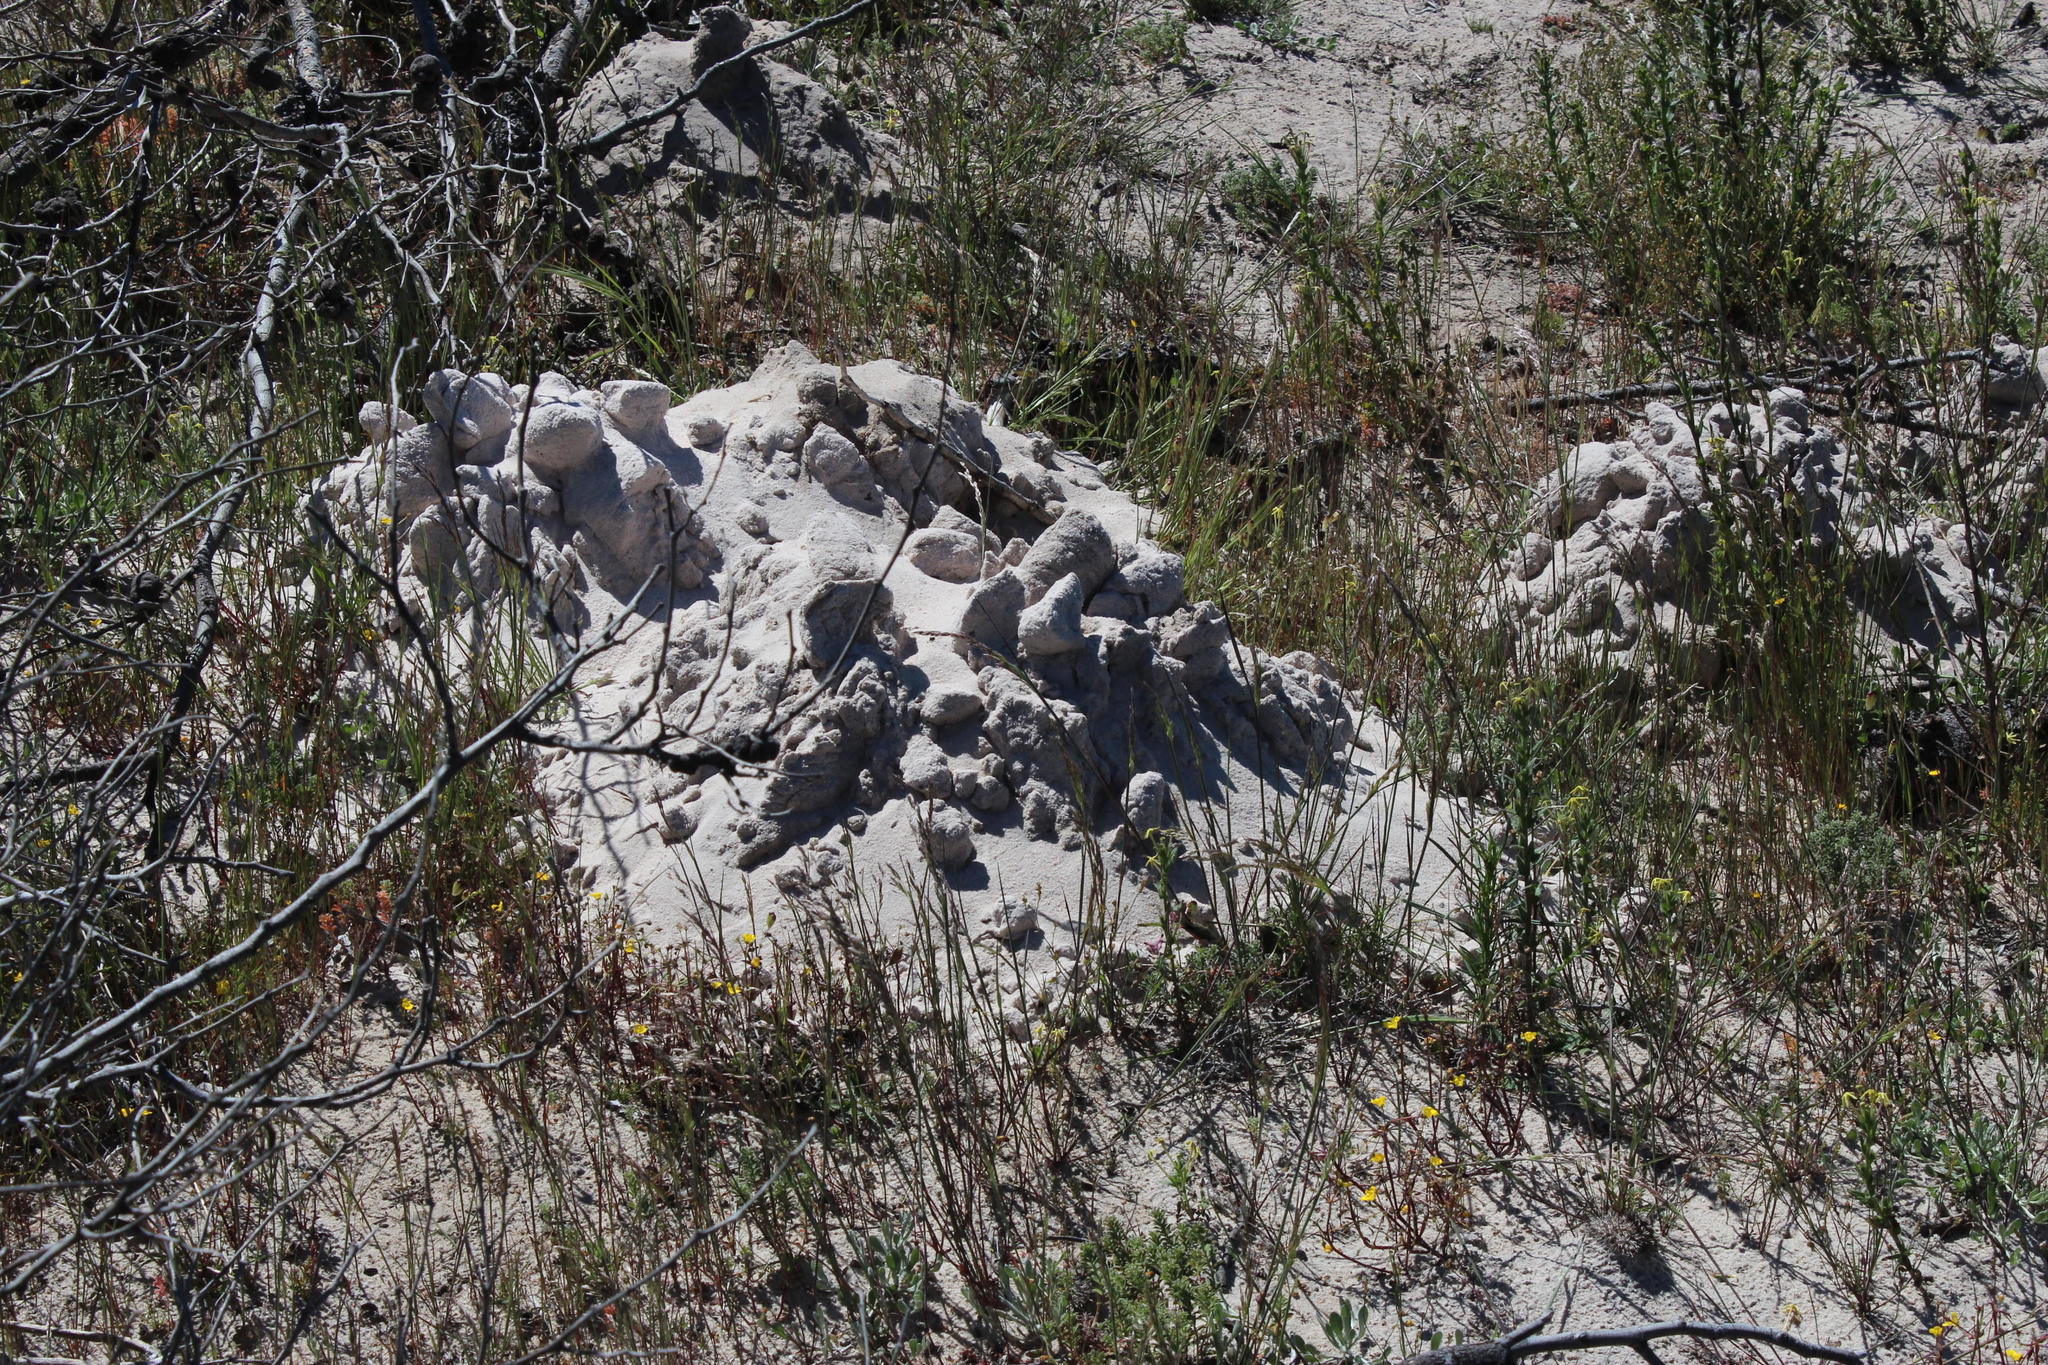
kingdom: Animalia
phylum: Chordata
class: Mammalia
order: Rodentia
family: Bathyergidae
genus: Bathyergus
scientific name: Bathyergus suillus
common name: Cape dune mole rat
